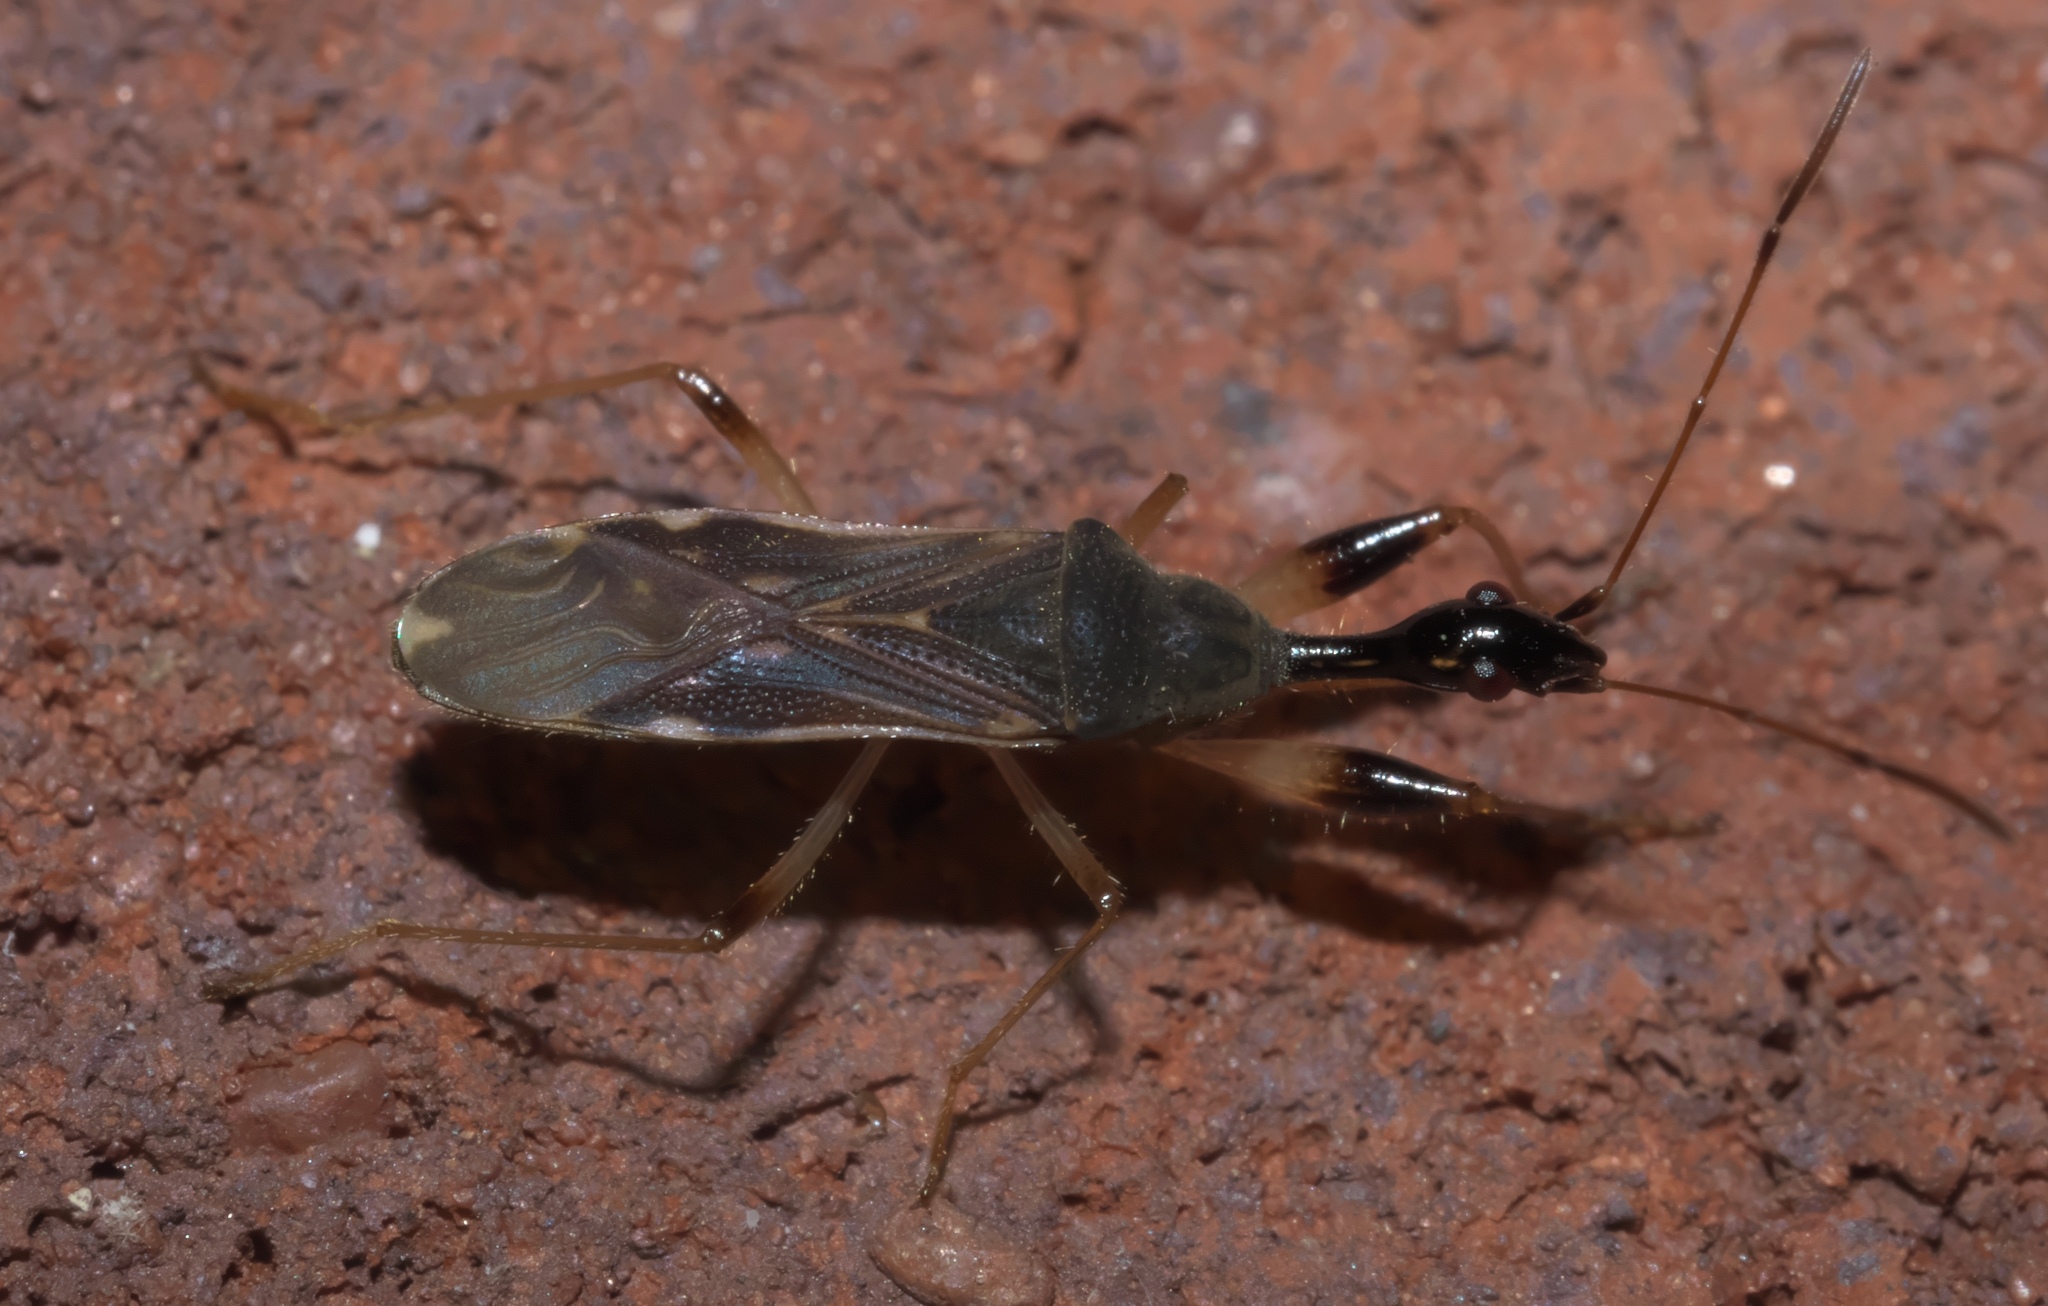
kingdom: Animalia
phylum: Arthropoda
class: Insecta
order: Hemiptera
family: Rhyparochromidae
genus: Myodocha
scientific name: Myodocha serripes
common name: Long-necked seed bug
